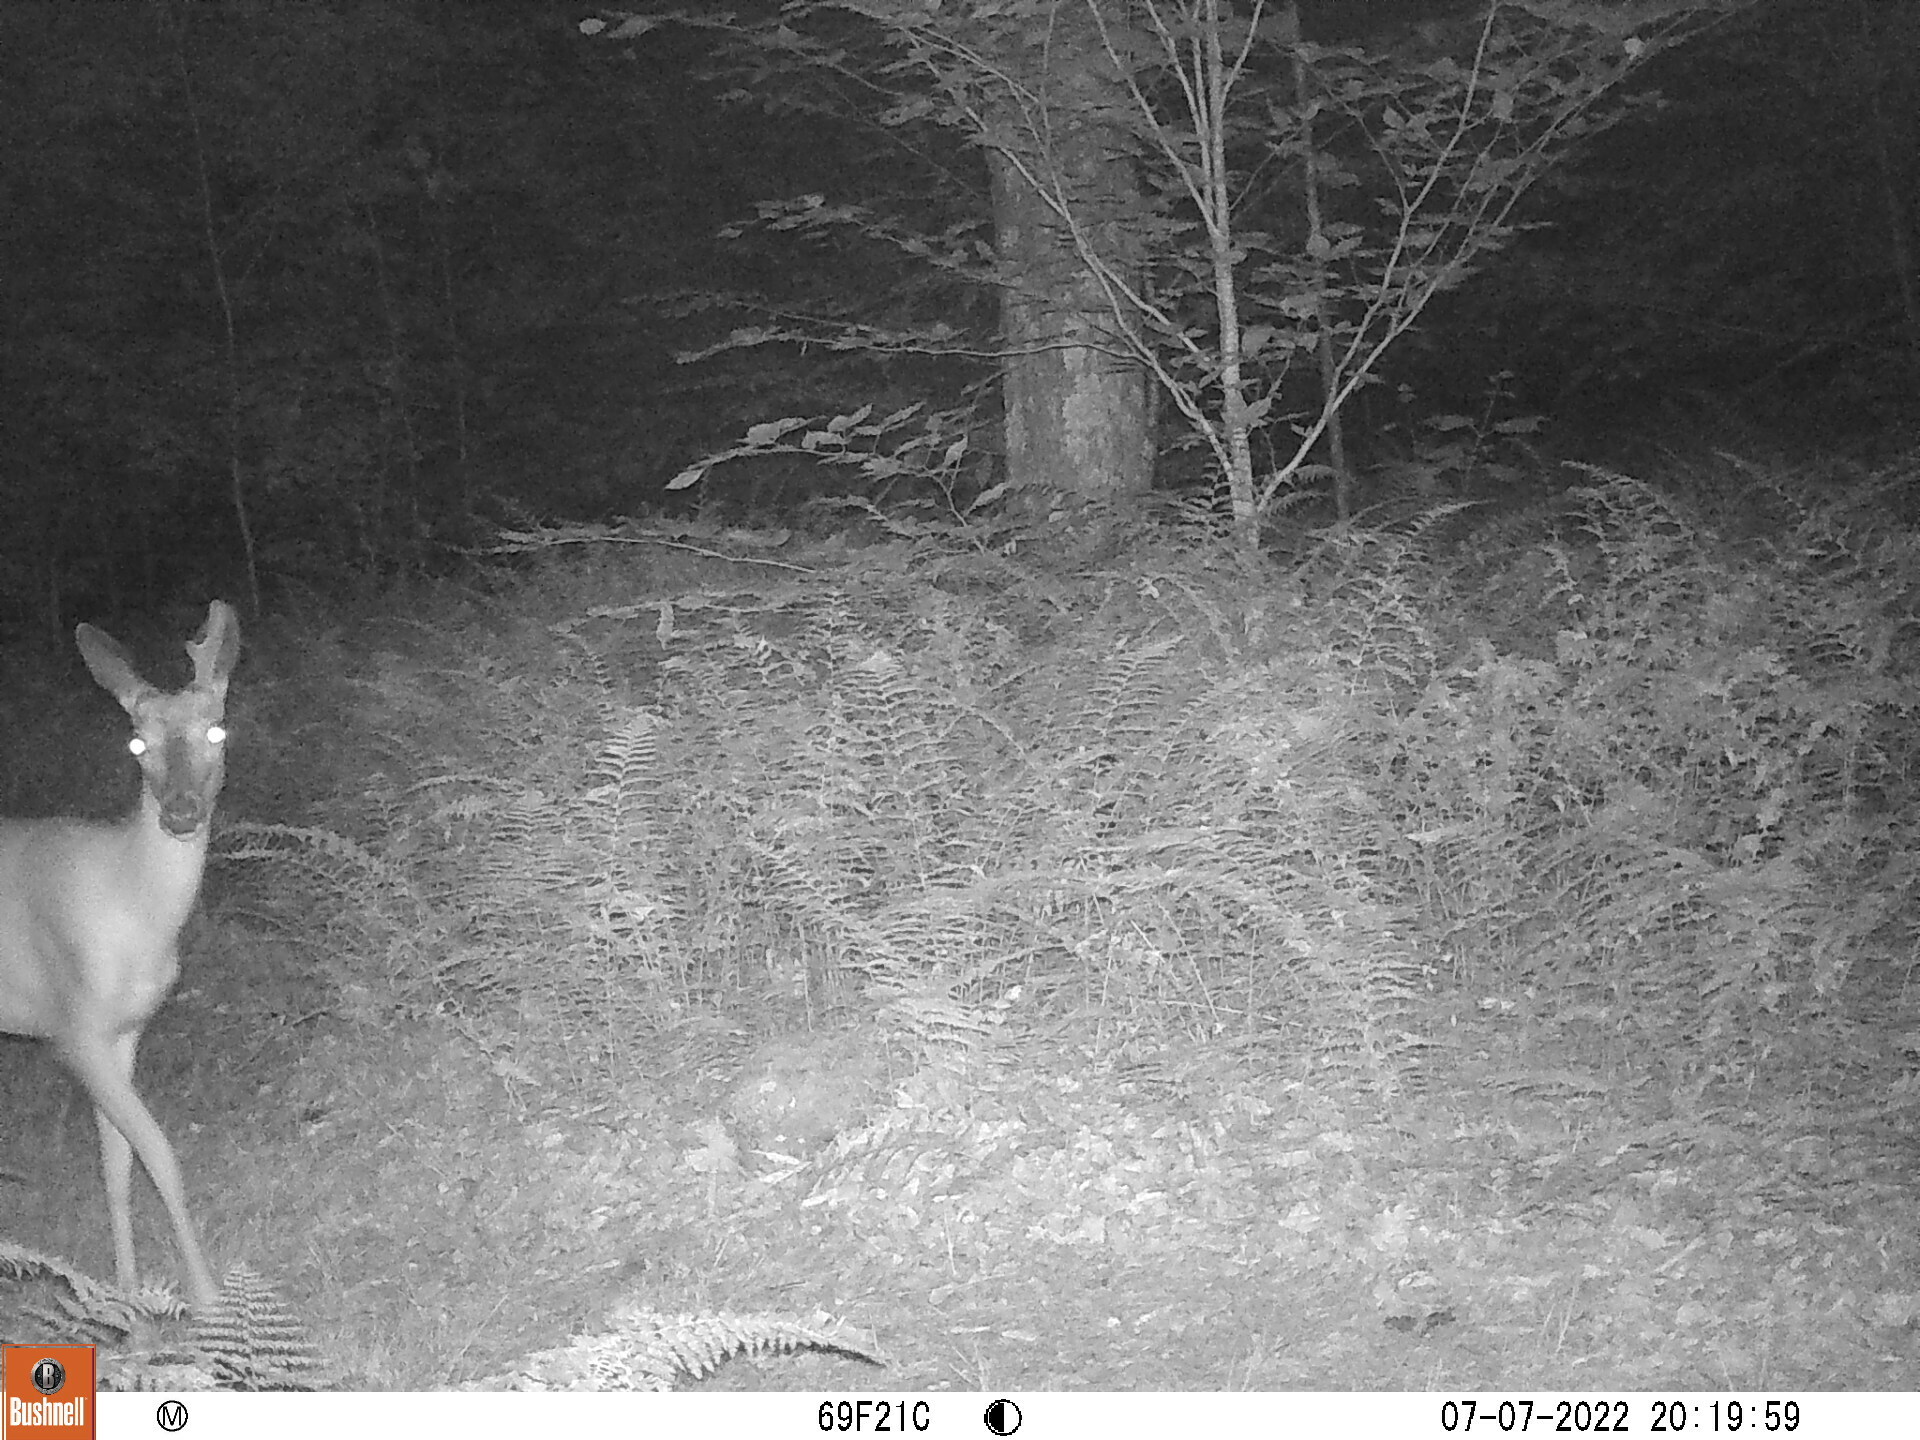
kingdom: Animalia
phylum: Chordata
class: Mammalia
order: Artiodactyla
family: Cervidae
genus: Odocoileus
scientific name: Odocoileus virginianus
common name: White-tailed deer
